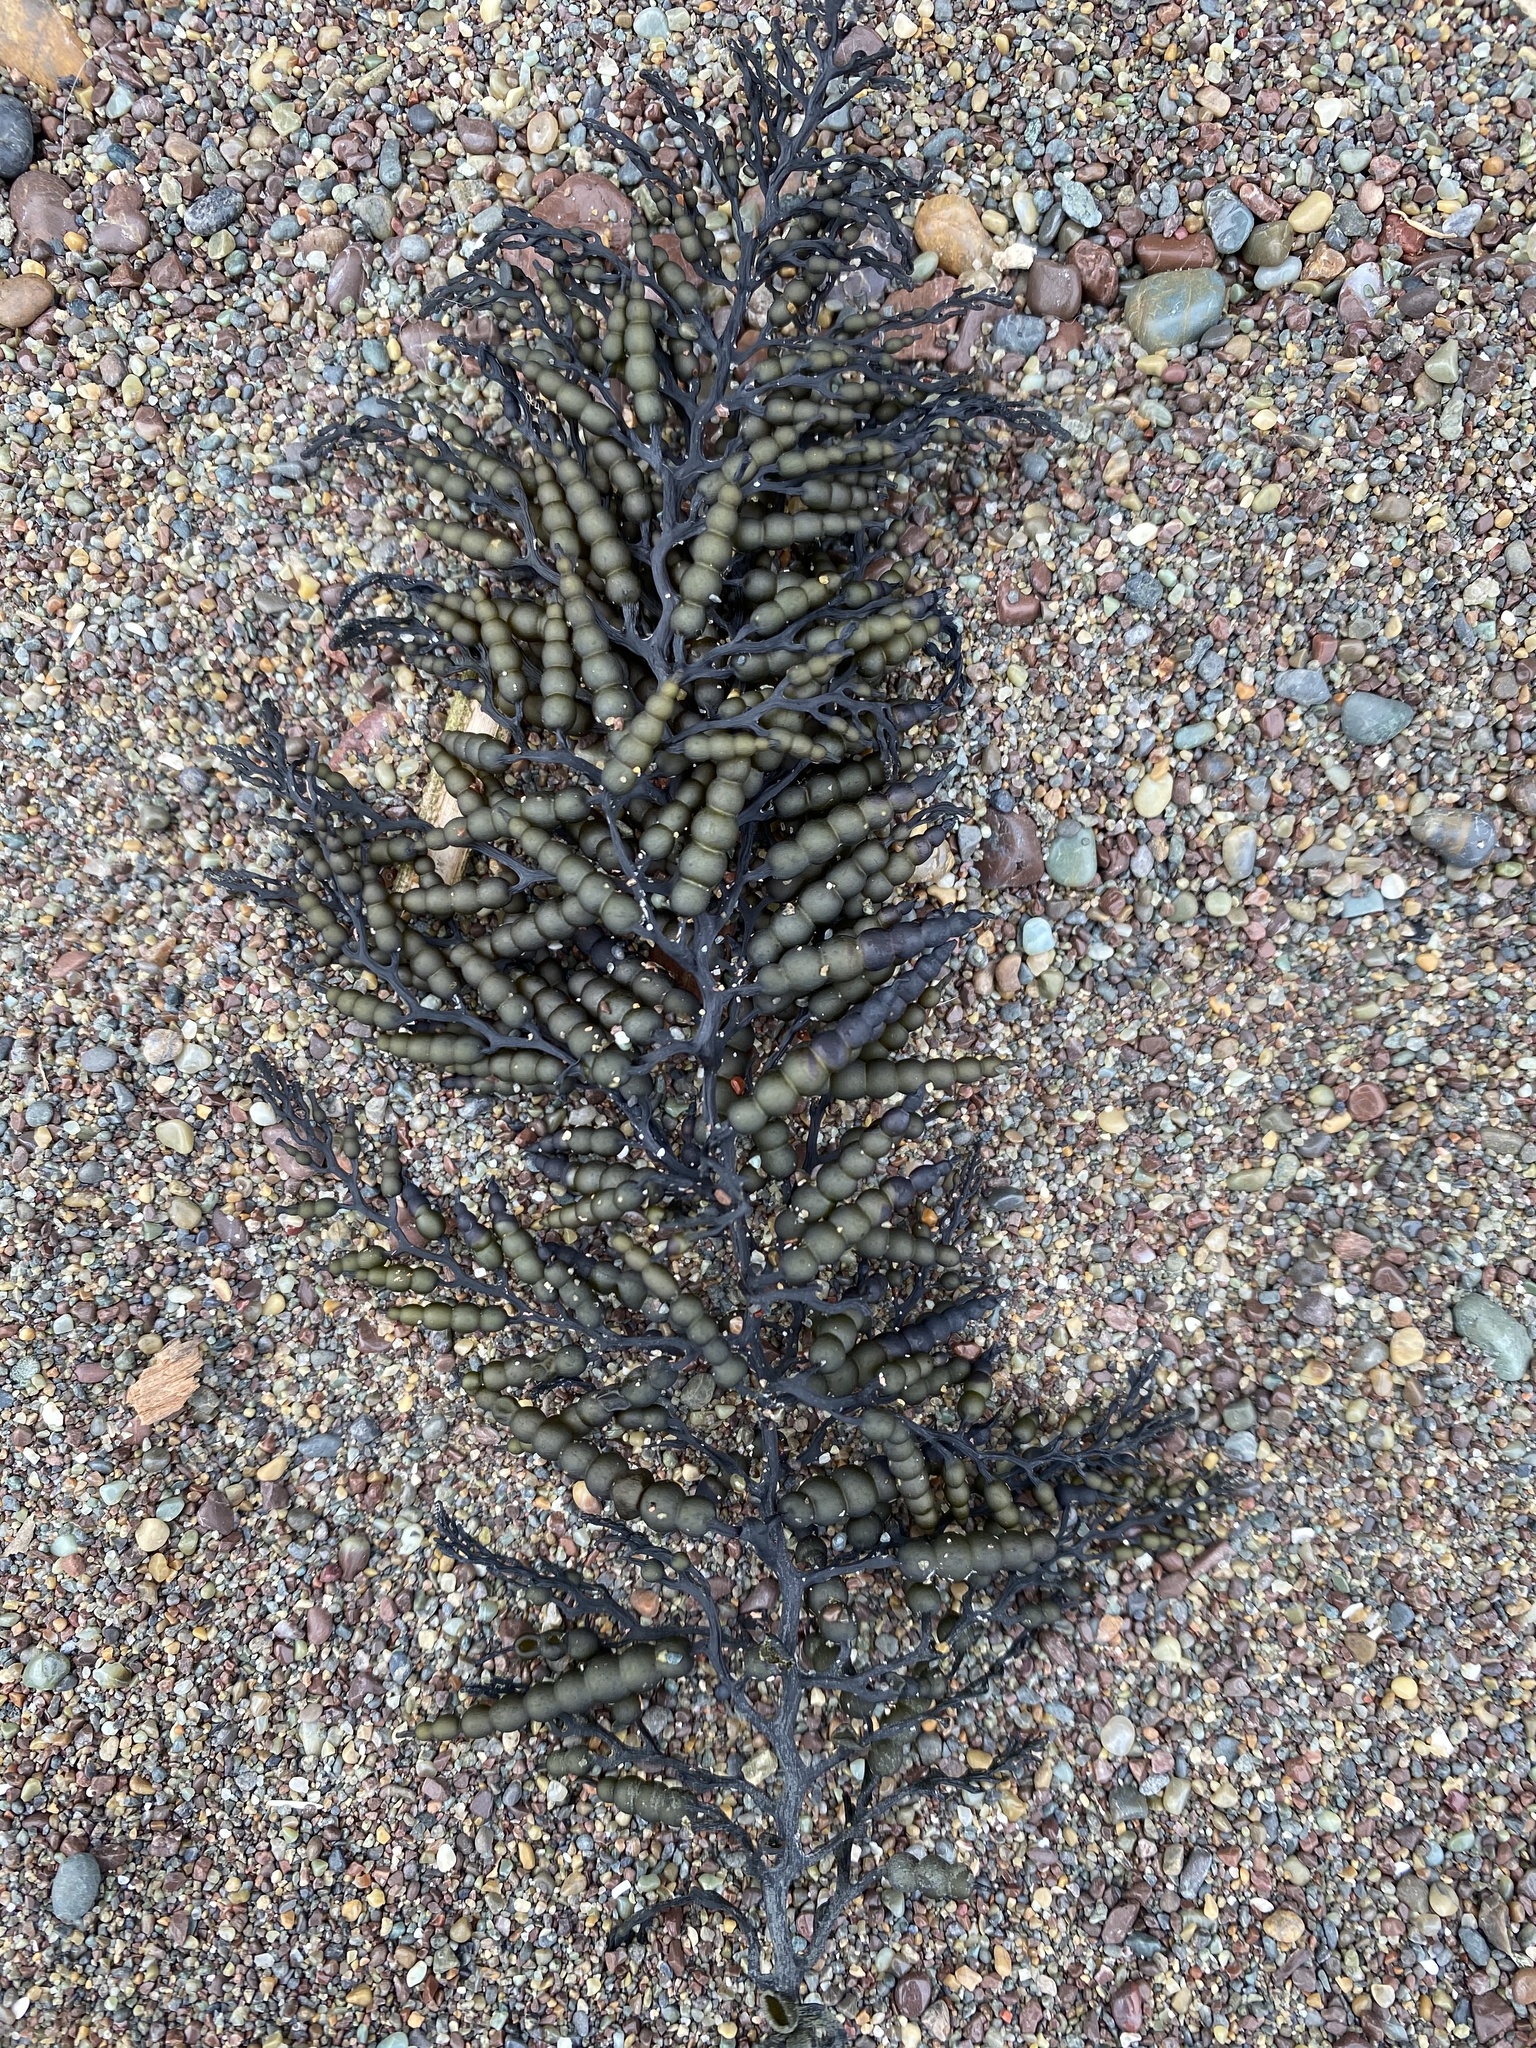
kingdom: Chromista
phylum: Ochrophyta
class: Phaeophyceae
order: Fucales
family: Sargassaceae
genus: Stephanocystis
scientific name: Stephanocystis
